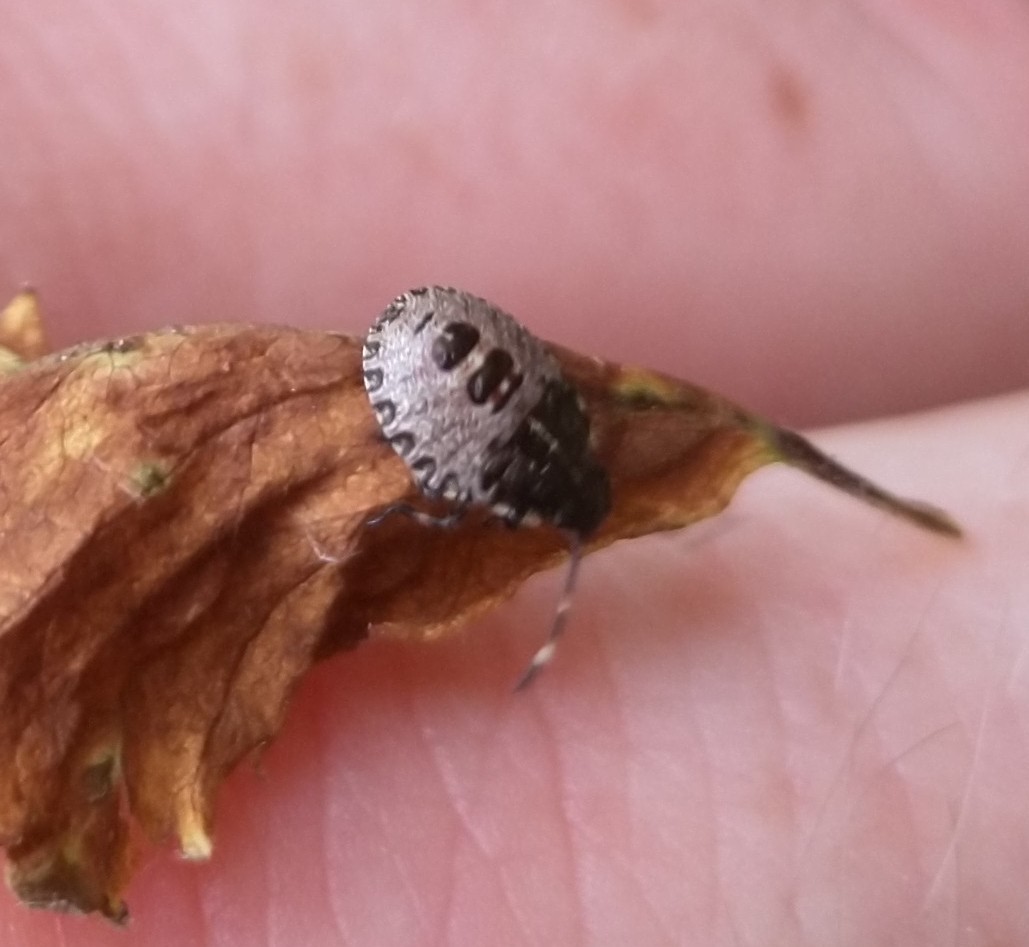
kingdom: Animalia
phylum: Arthropoda
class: Insecta
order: Hemiptera
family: Pentatomidae
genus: Rhaphigaster
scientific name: Rhaphigaster nebulosa
